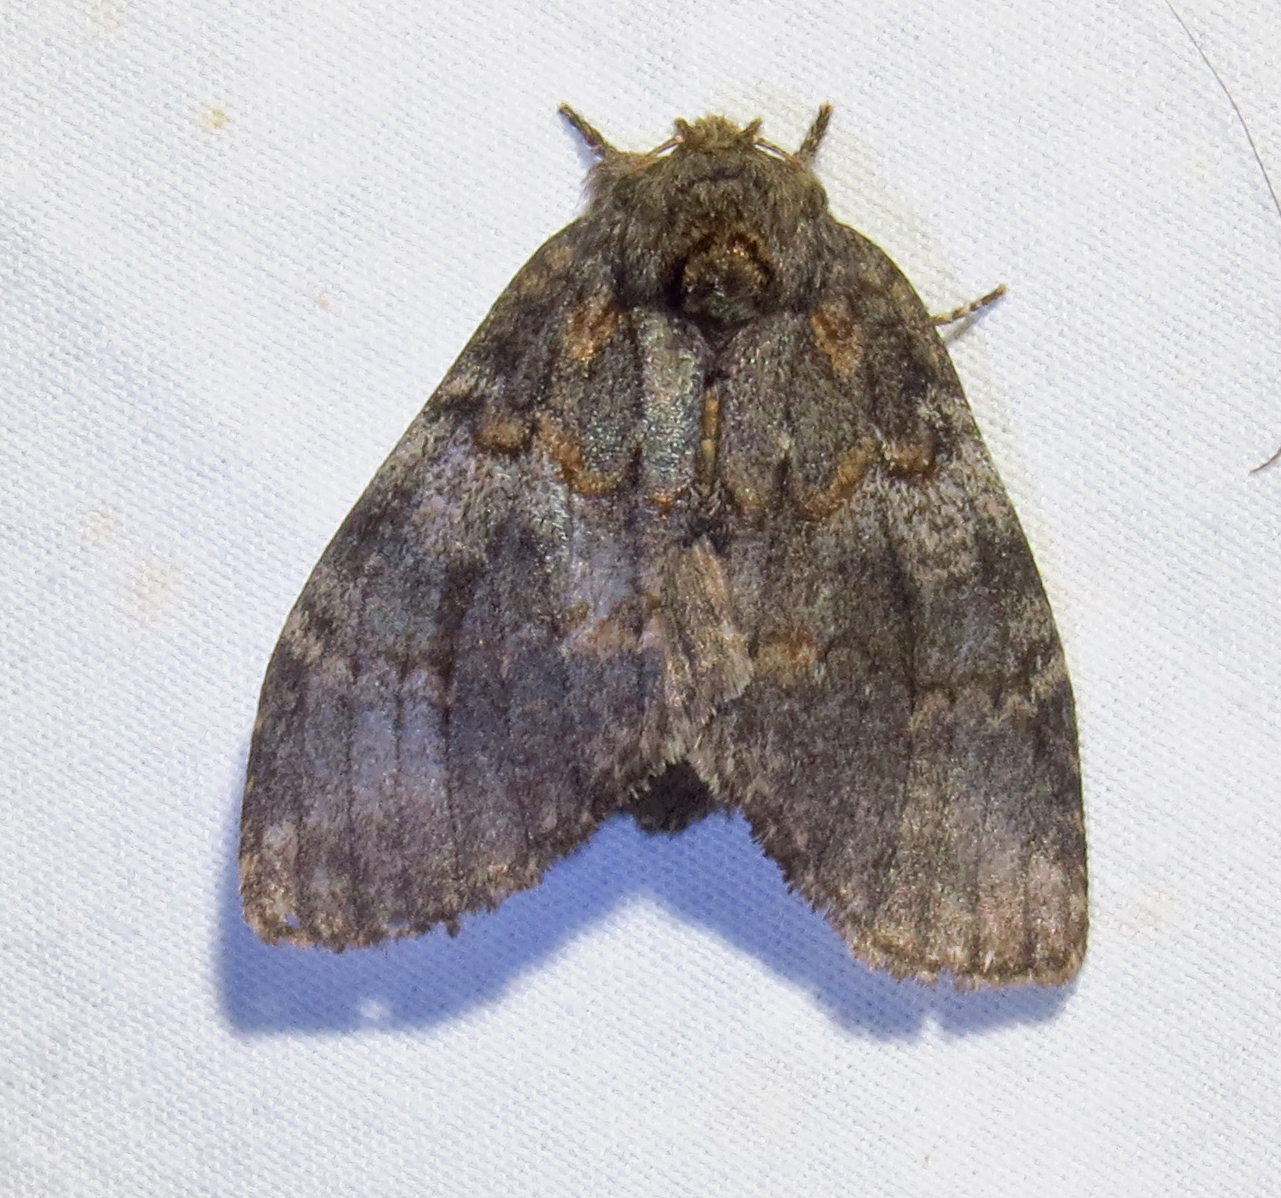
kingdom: Animalia
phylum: Arthropoda
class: Insecta
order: Lepidoptera
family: Notodontidae
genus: Peridea
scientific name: Peridea angulosa
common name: Angulose prominent
